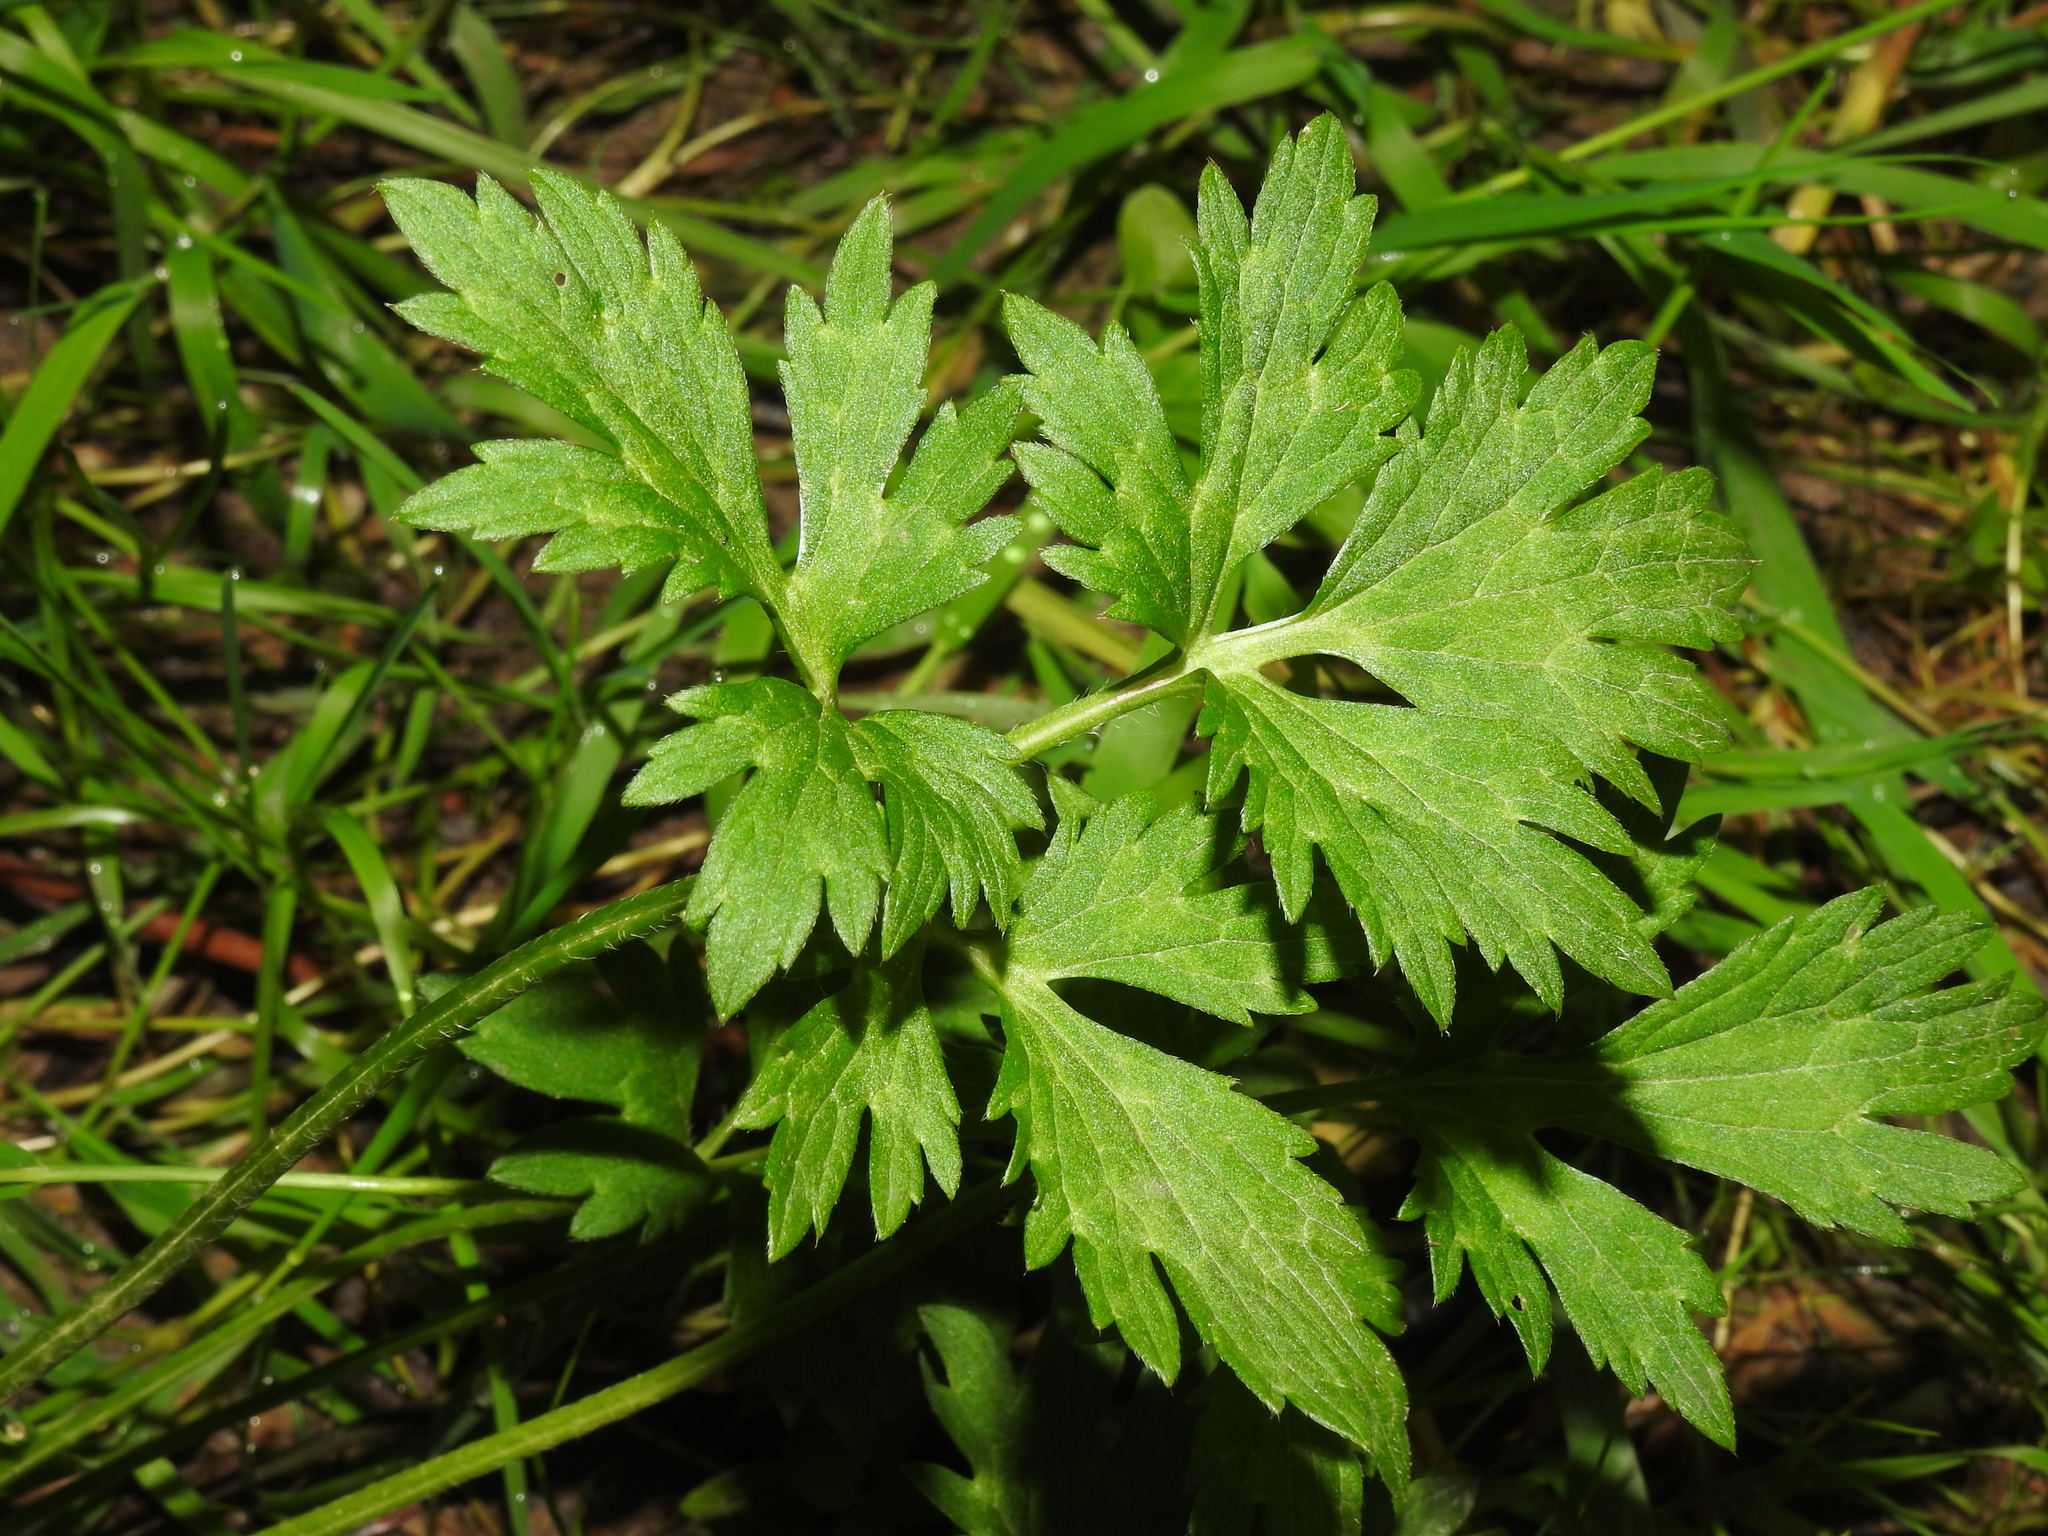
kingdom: Plantae
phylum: Tracheophyta
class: Magnoliopsida
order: Ranunculales
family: Ranunculaceae
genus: Ranunculus
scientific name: Ranunculus repens
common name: Creeping buttercup
